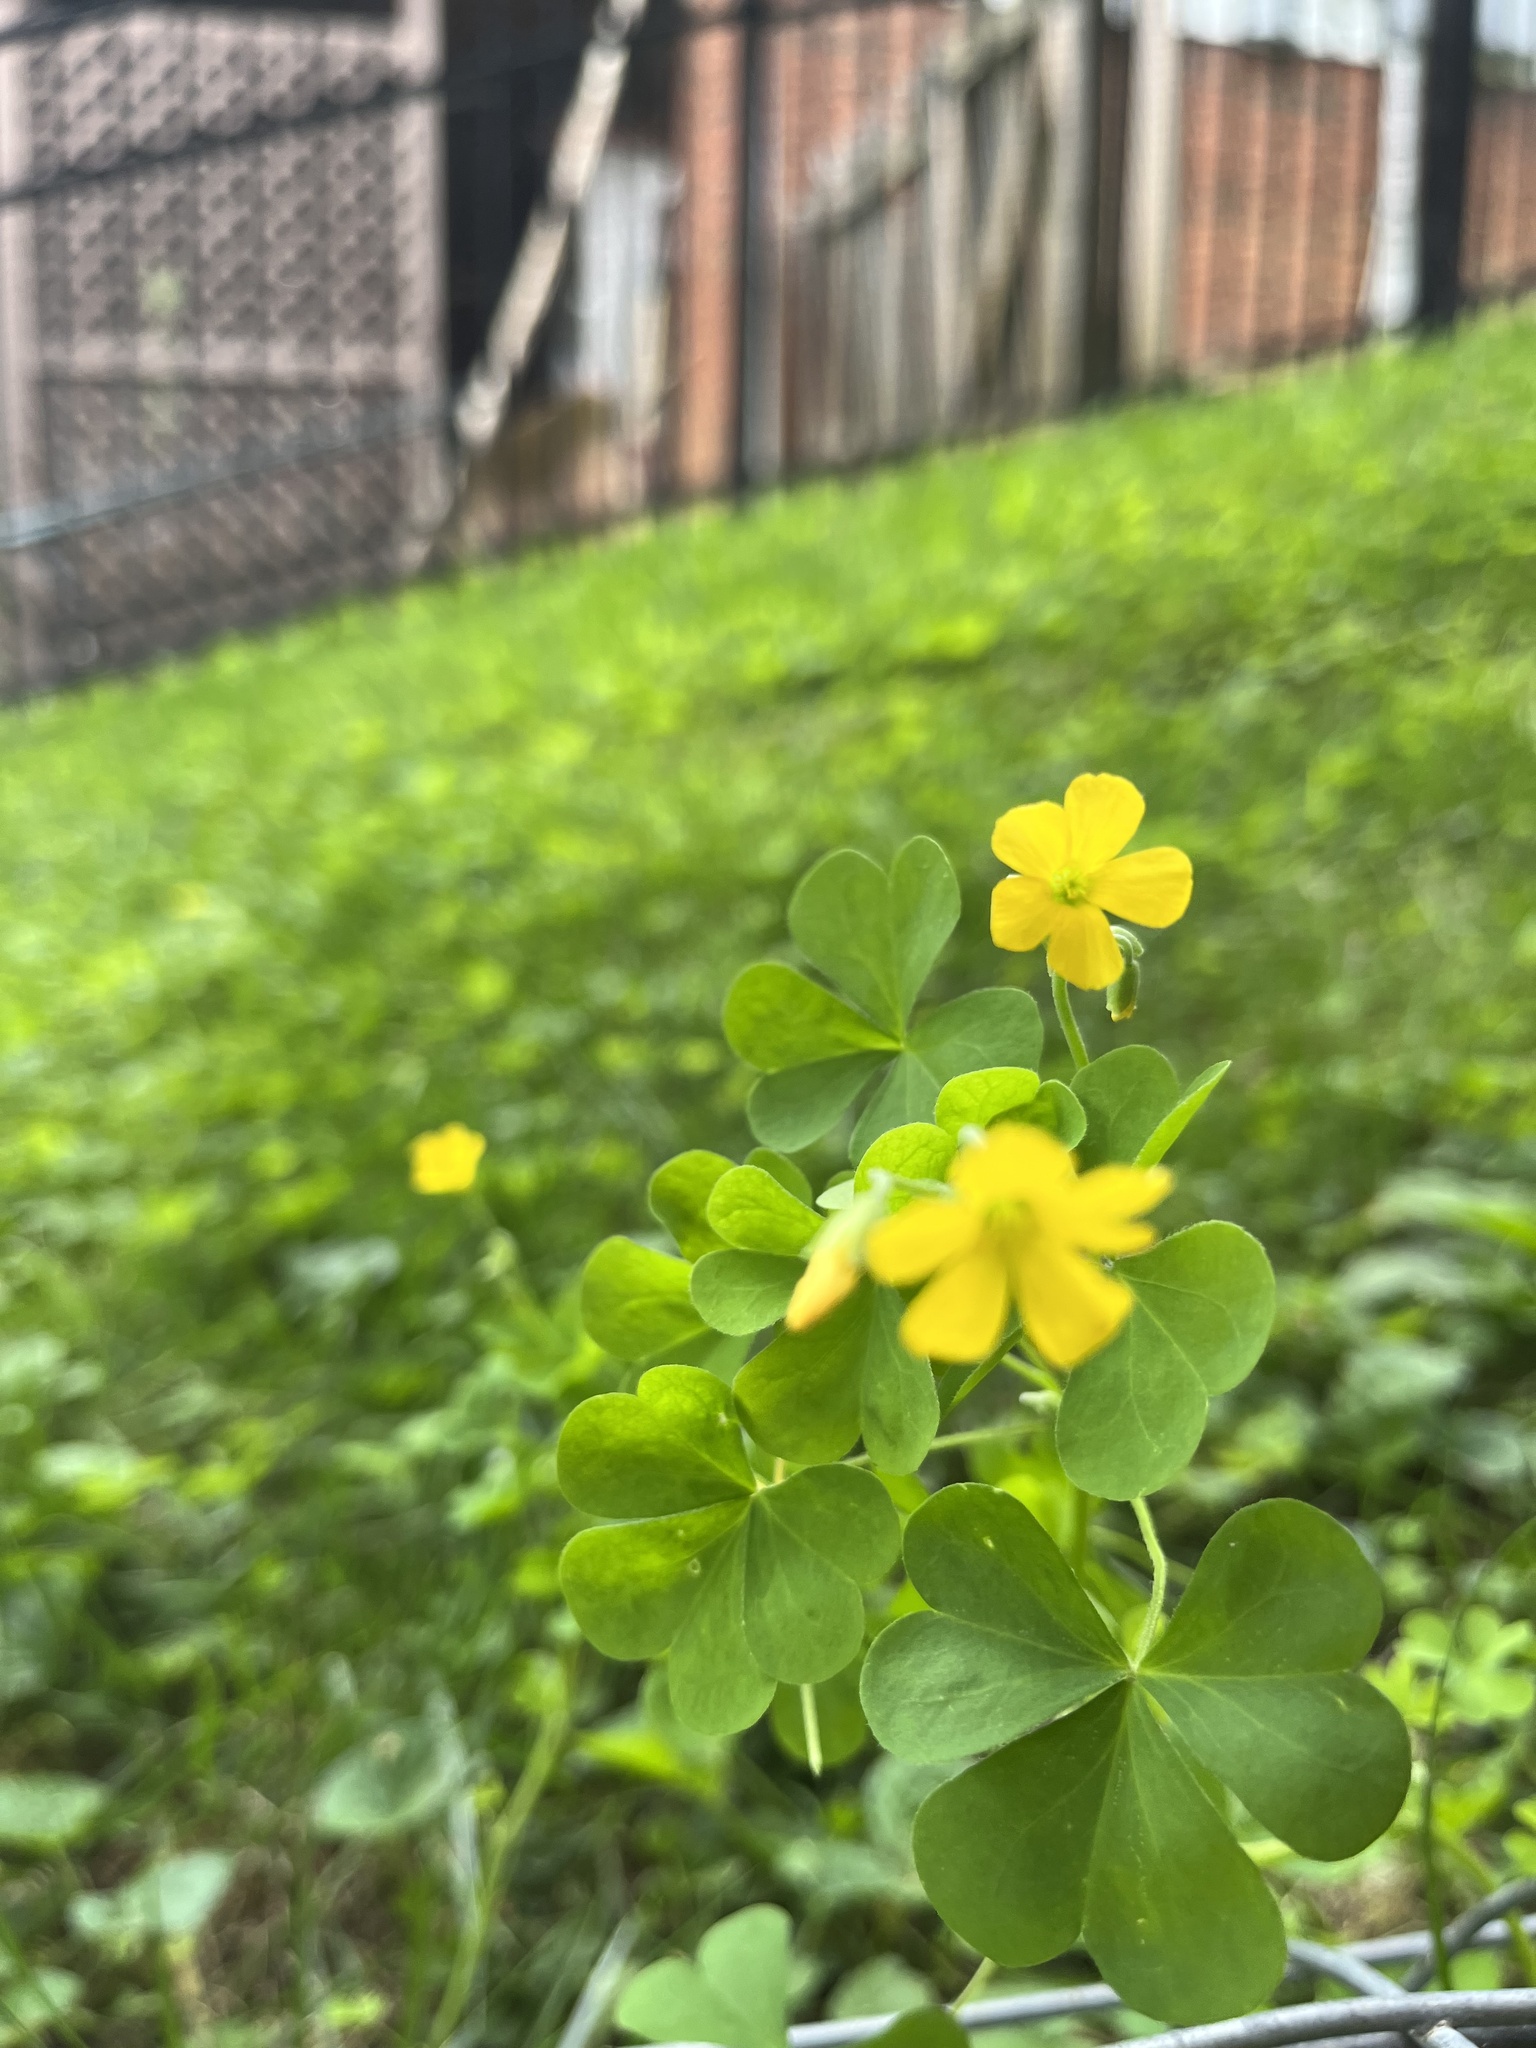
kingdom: Plantae
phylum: Tracheophyta
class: Magnoliopsida
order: Oxalidales
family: Oxalidaceae
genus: Oxalis
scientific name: Oxalis dillenii
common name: Sussex yellow-sorrel
